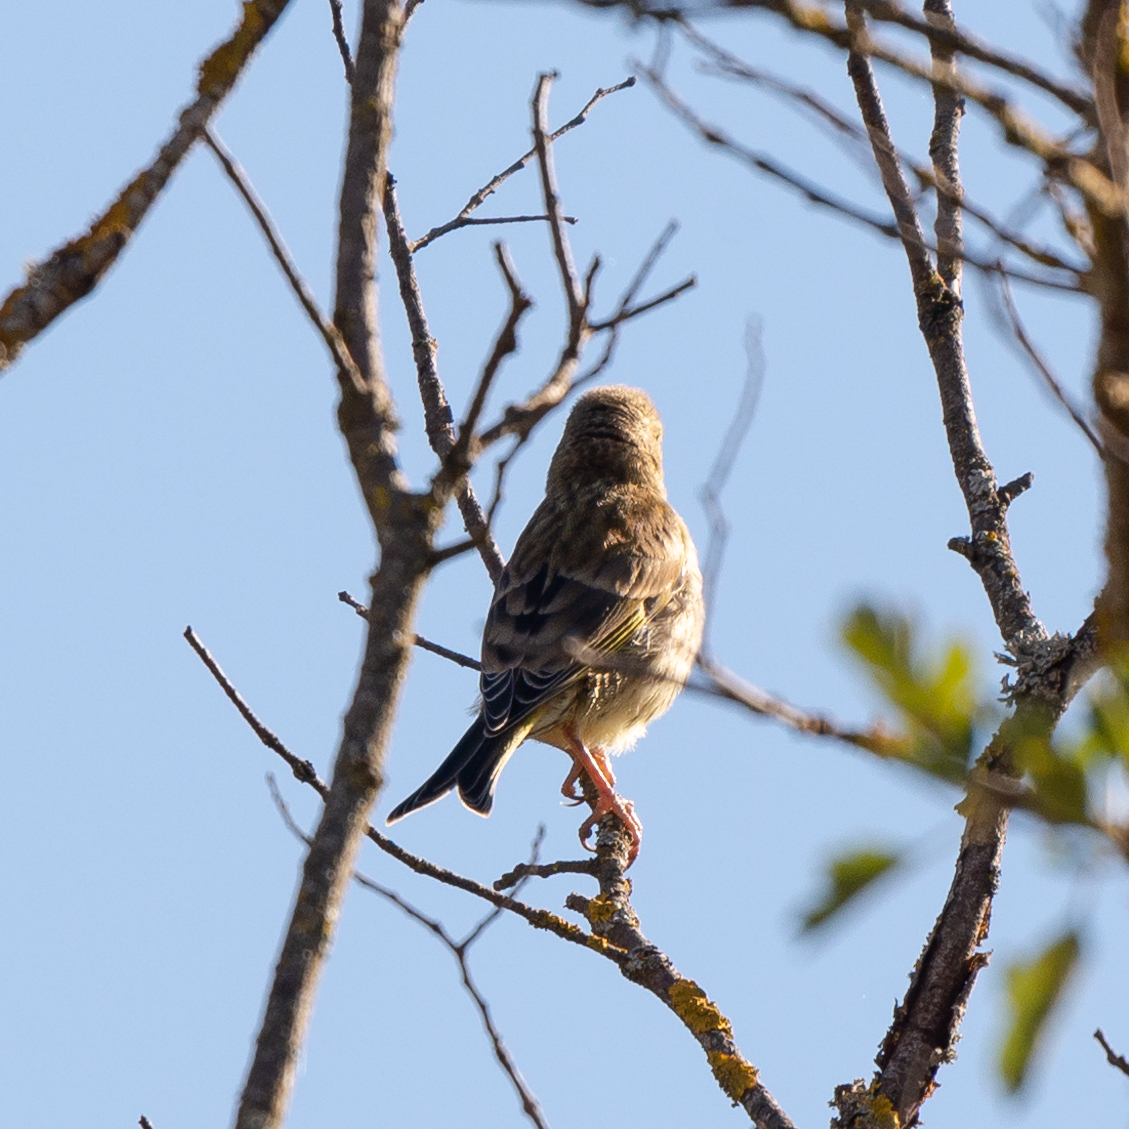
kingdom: Plantae
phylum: Tracheophyta
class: Liliopsida
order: Poales
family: Poaceae
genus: Chloris
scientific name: Chloris chloris
